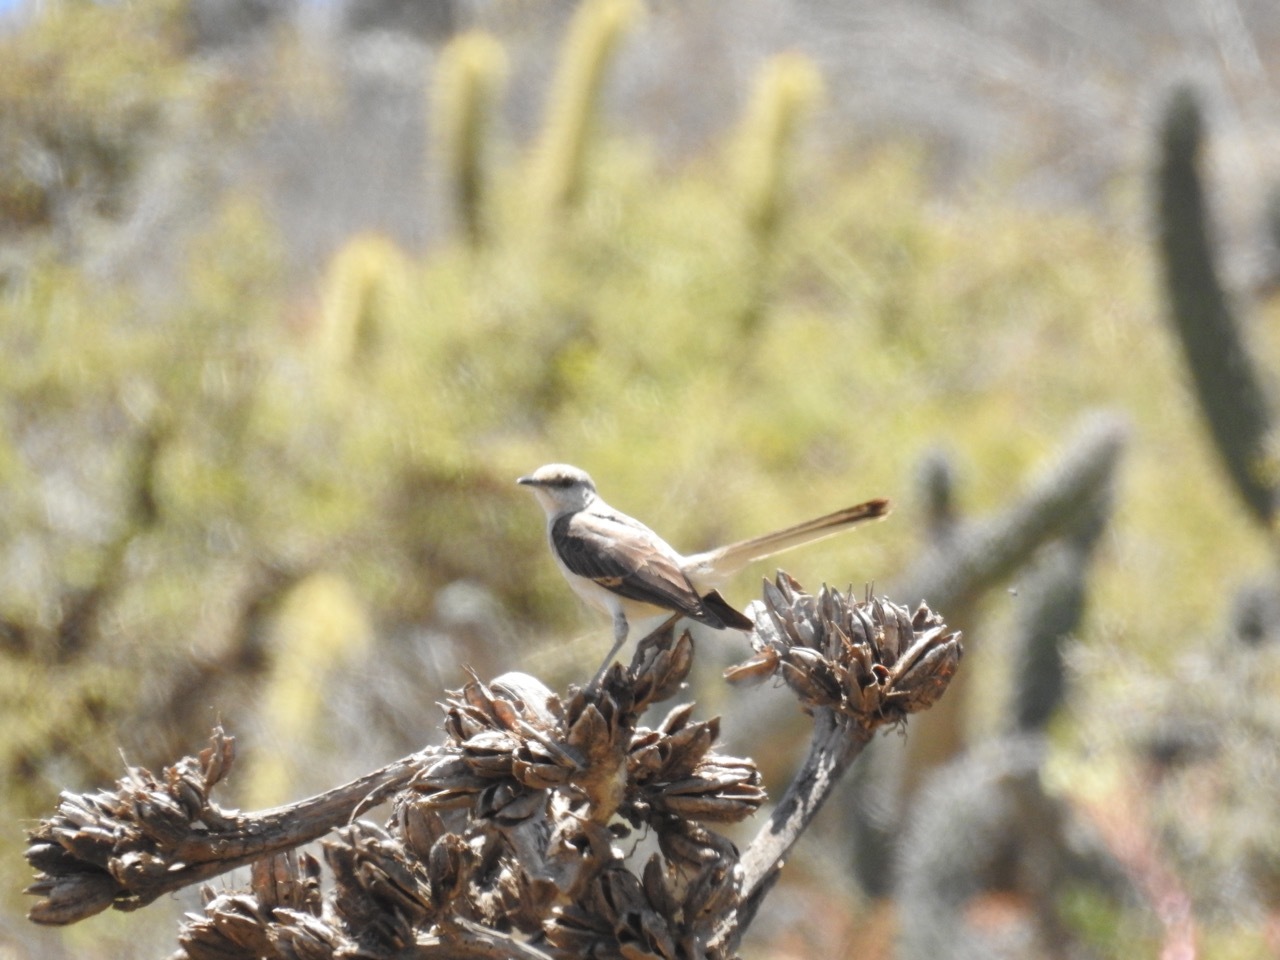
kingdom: Animalia
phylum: Chordata
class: Aves
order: Passeriformes
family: Mimidae
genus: Mimus
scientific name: Mimus polyglottos
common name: Northern mockingbird
